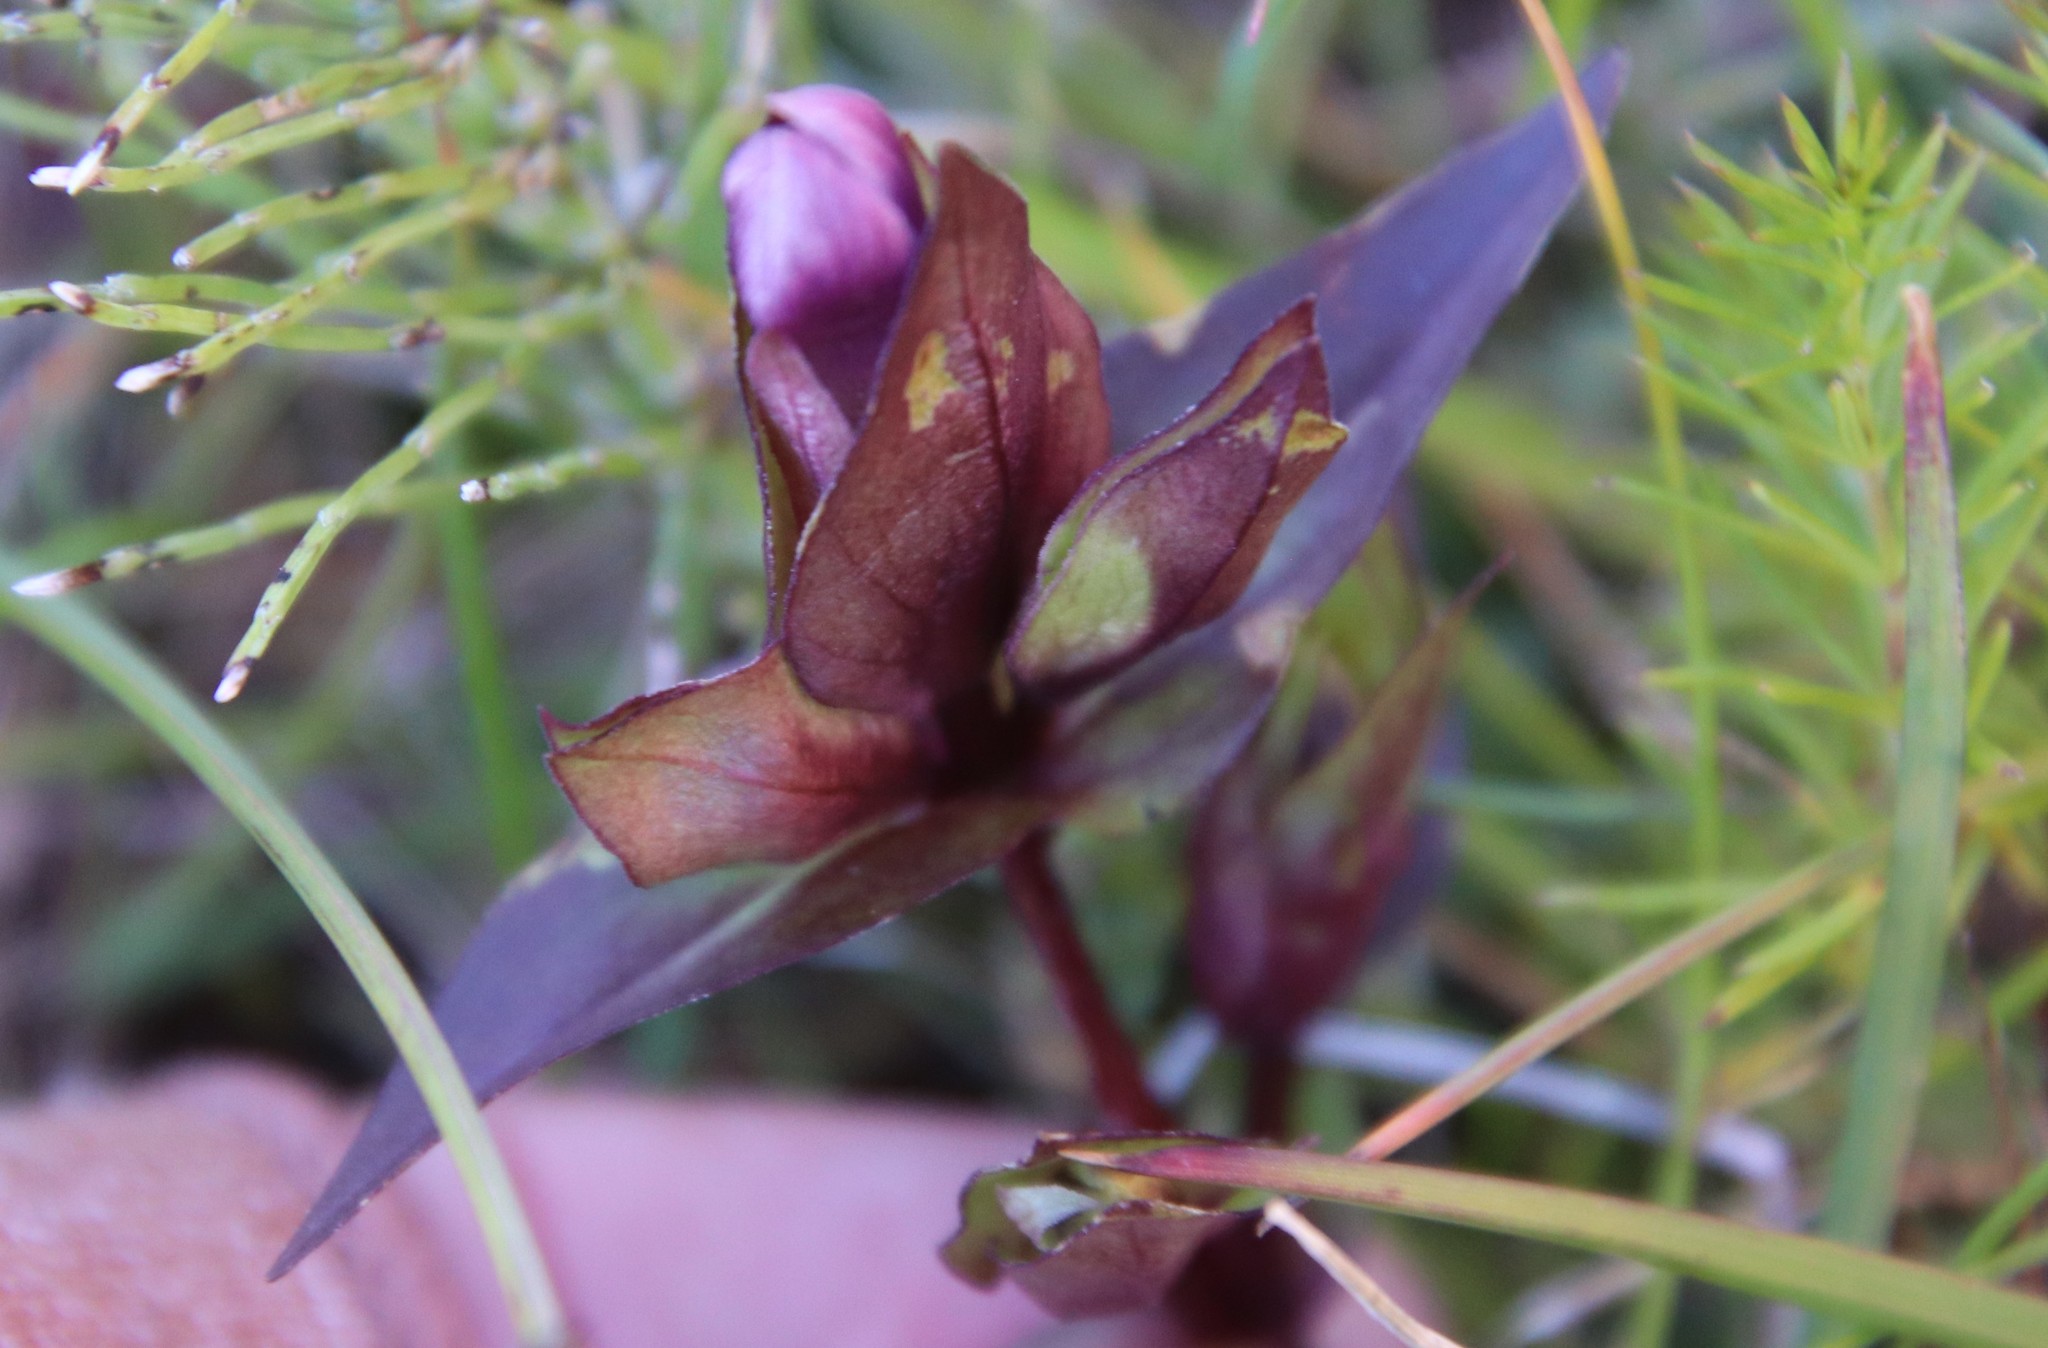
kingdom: Plantae
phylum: Tracheophyta
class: Magnoliopsida
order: Gentianales
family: Gentianaceae
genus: Gentianella
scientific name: Gentianella campestris
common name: Field gentian
